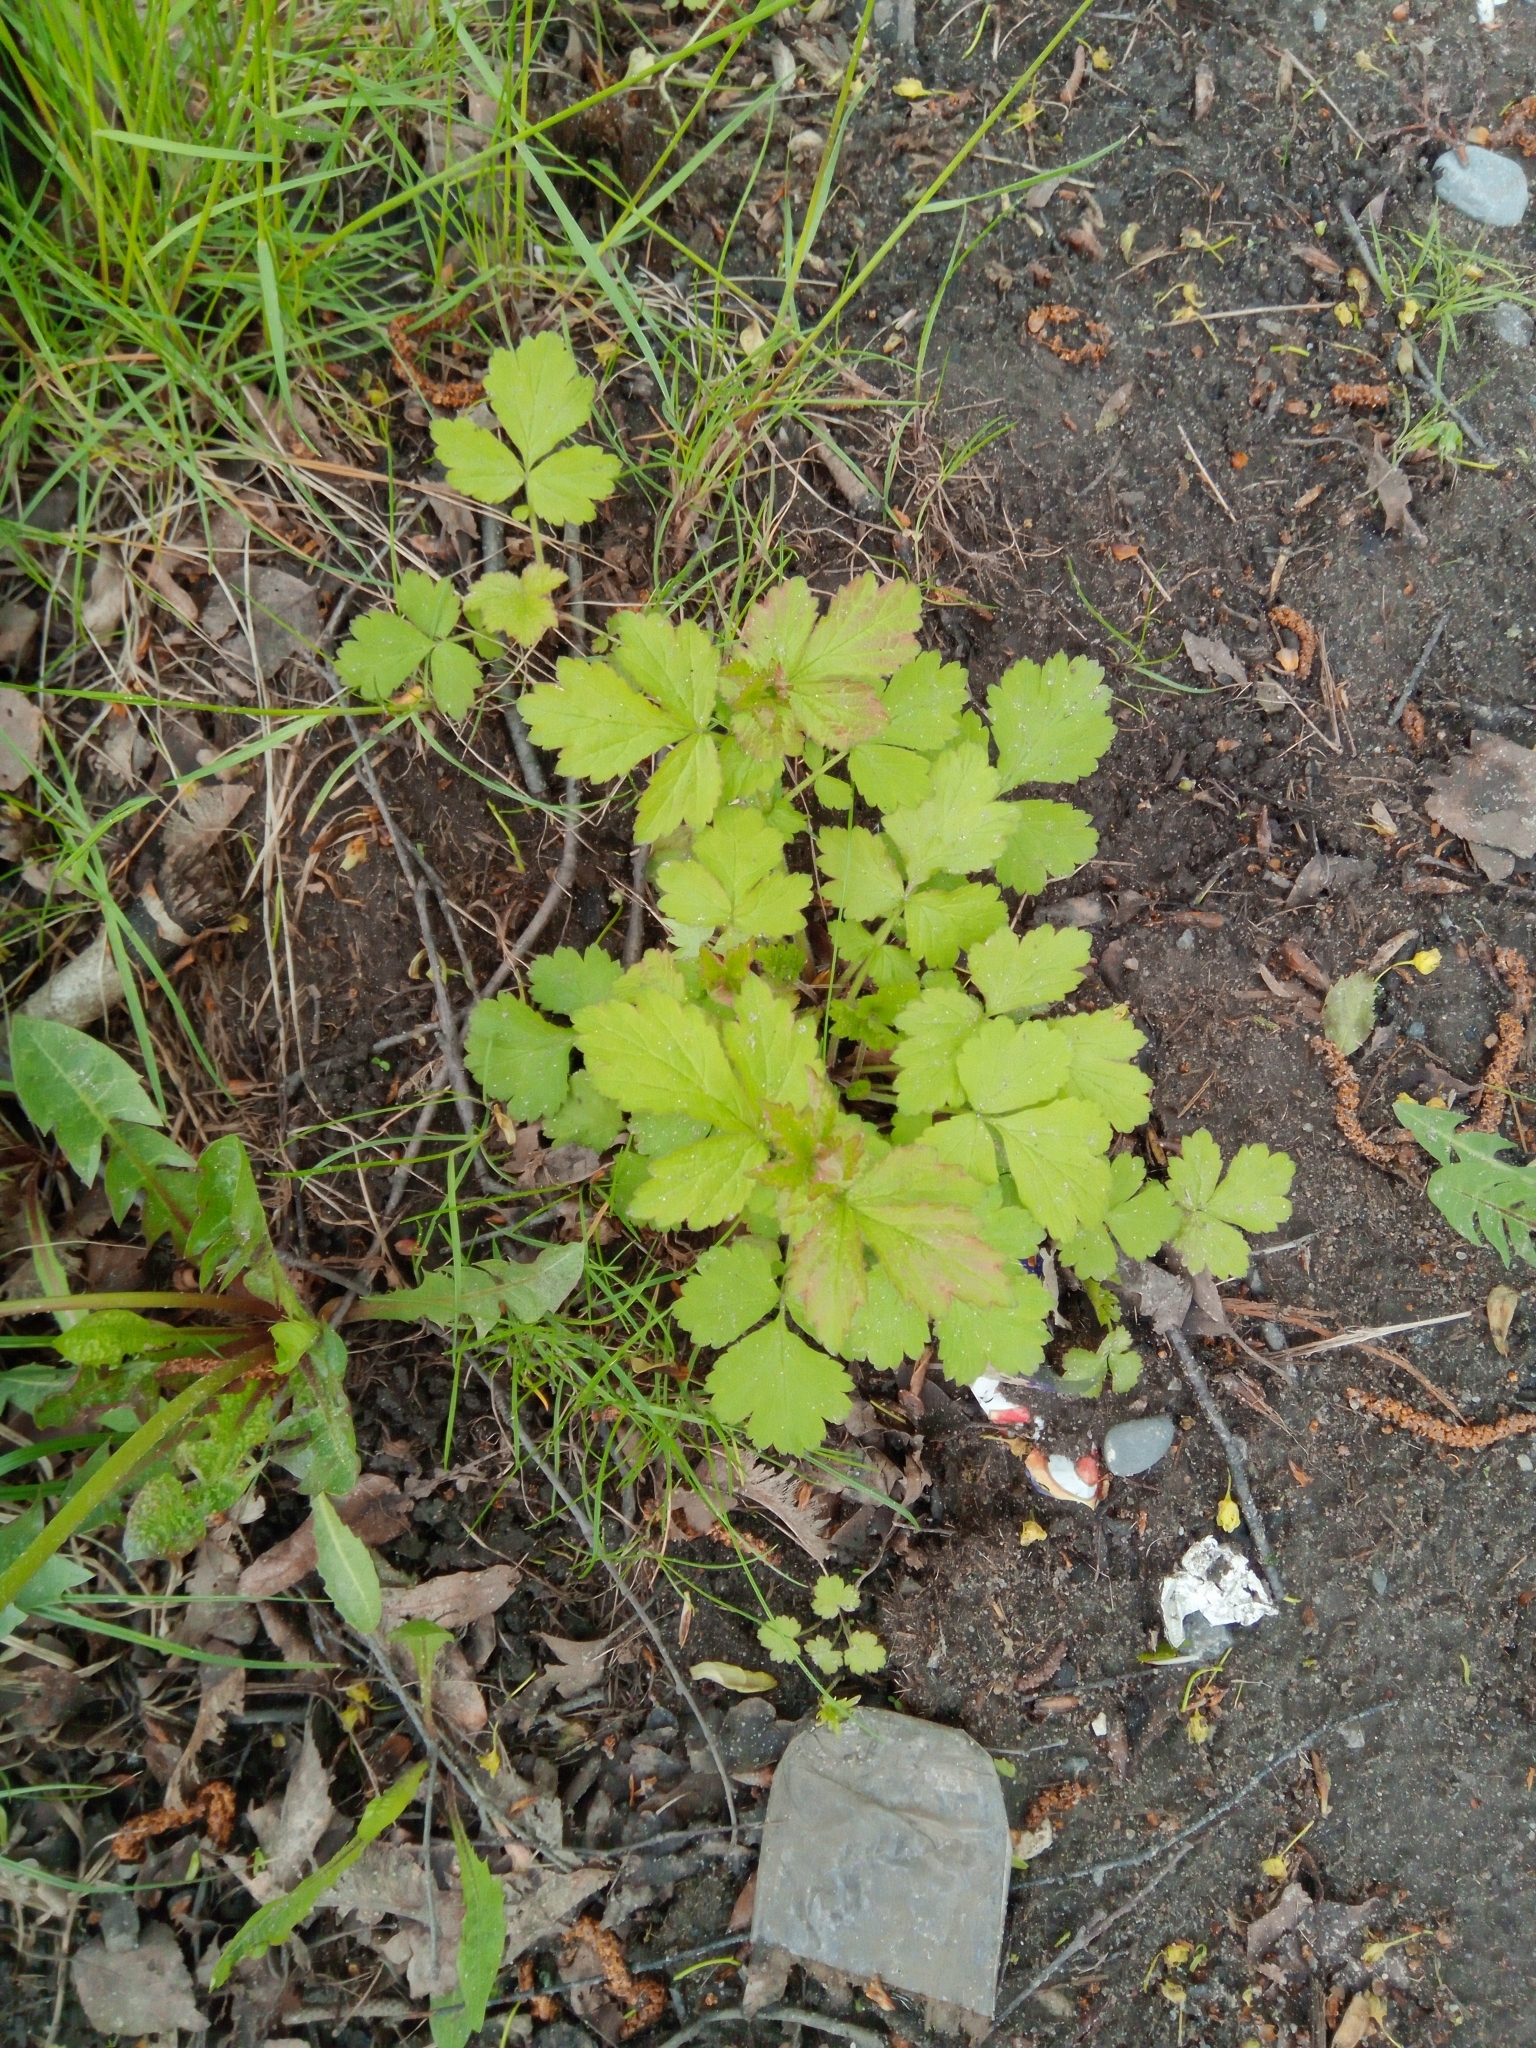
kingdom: Plantae
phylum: Tracheophyta
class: Magnoliopsida
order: Rosales
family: Rosaceae
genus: Geum
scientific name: Geum urbanum
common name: Wood avens
